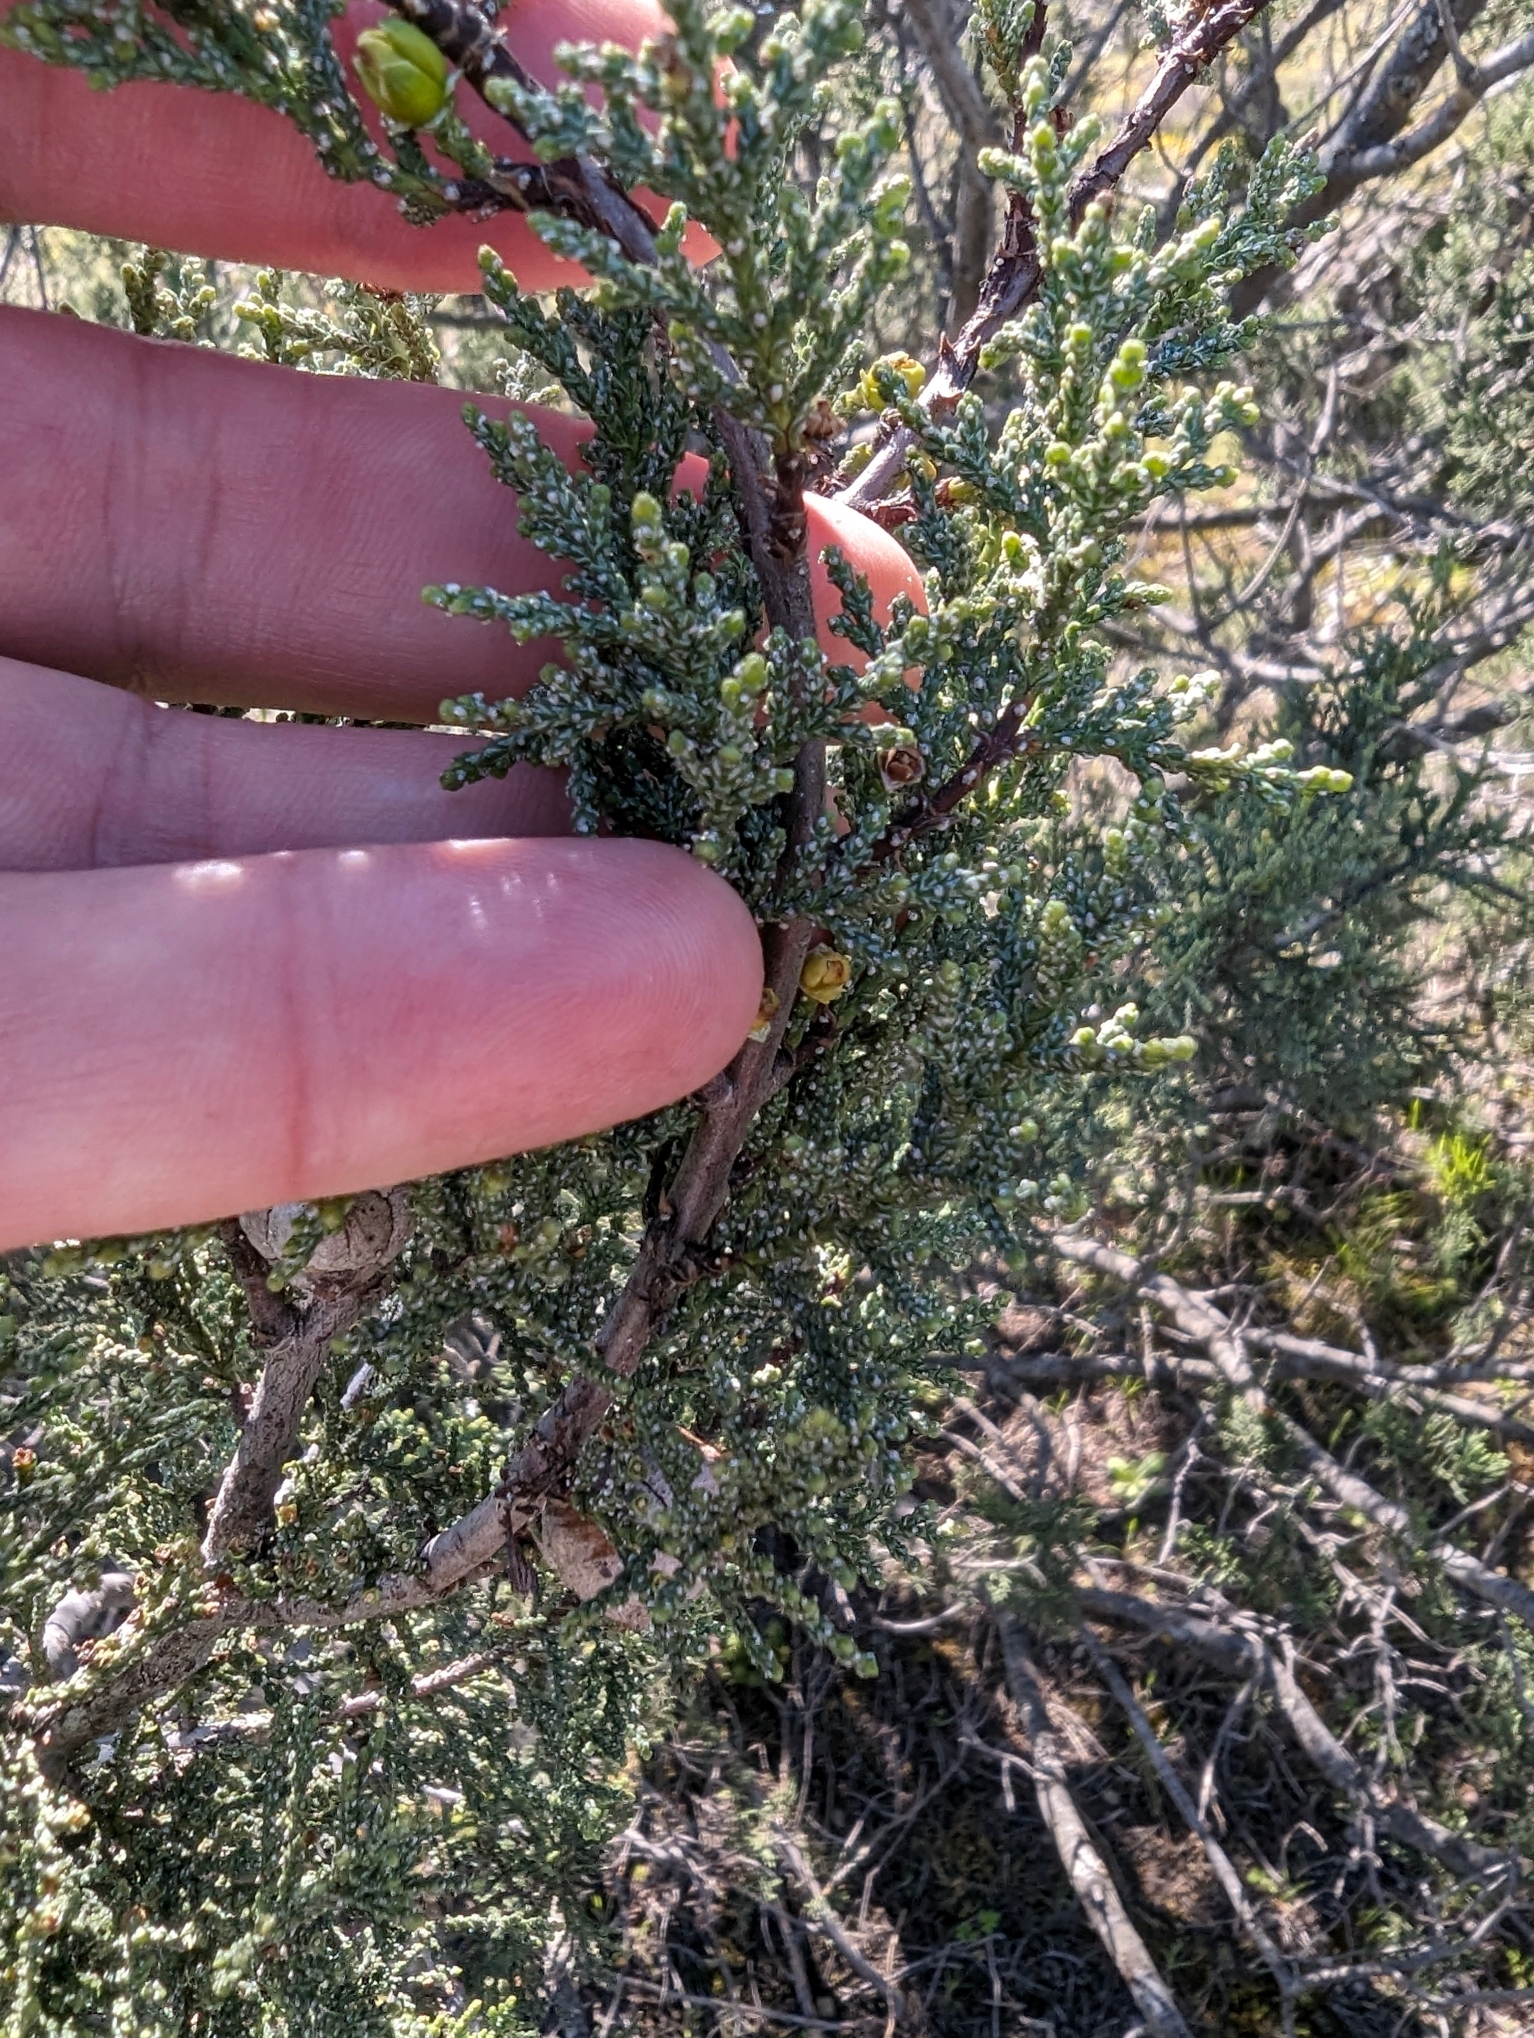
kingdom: Plantae
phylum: Tracheophyta
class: Pinopsida
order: Pinales
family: Cupressaceae
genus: Cupressus
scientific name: Cupressus macnabiana bis
